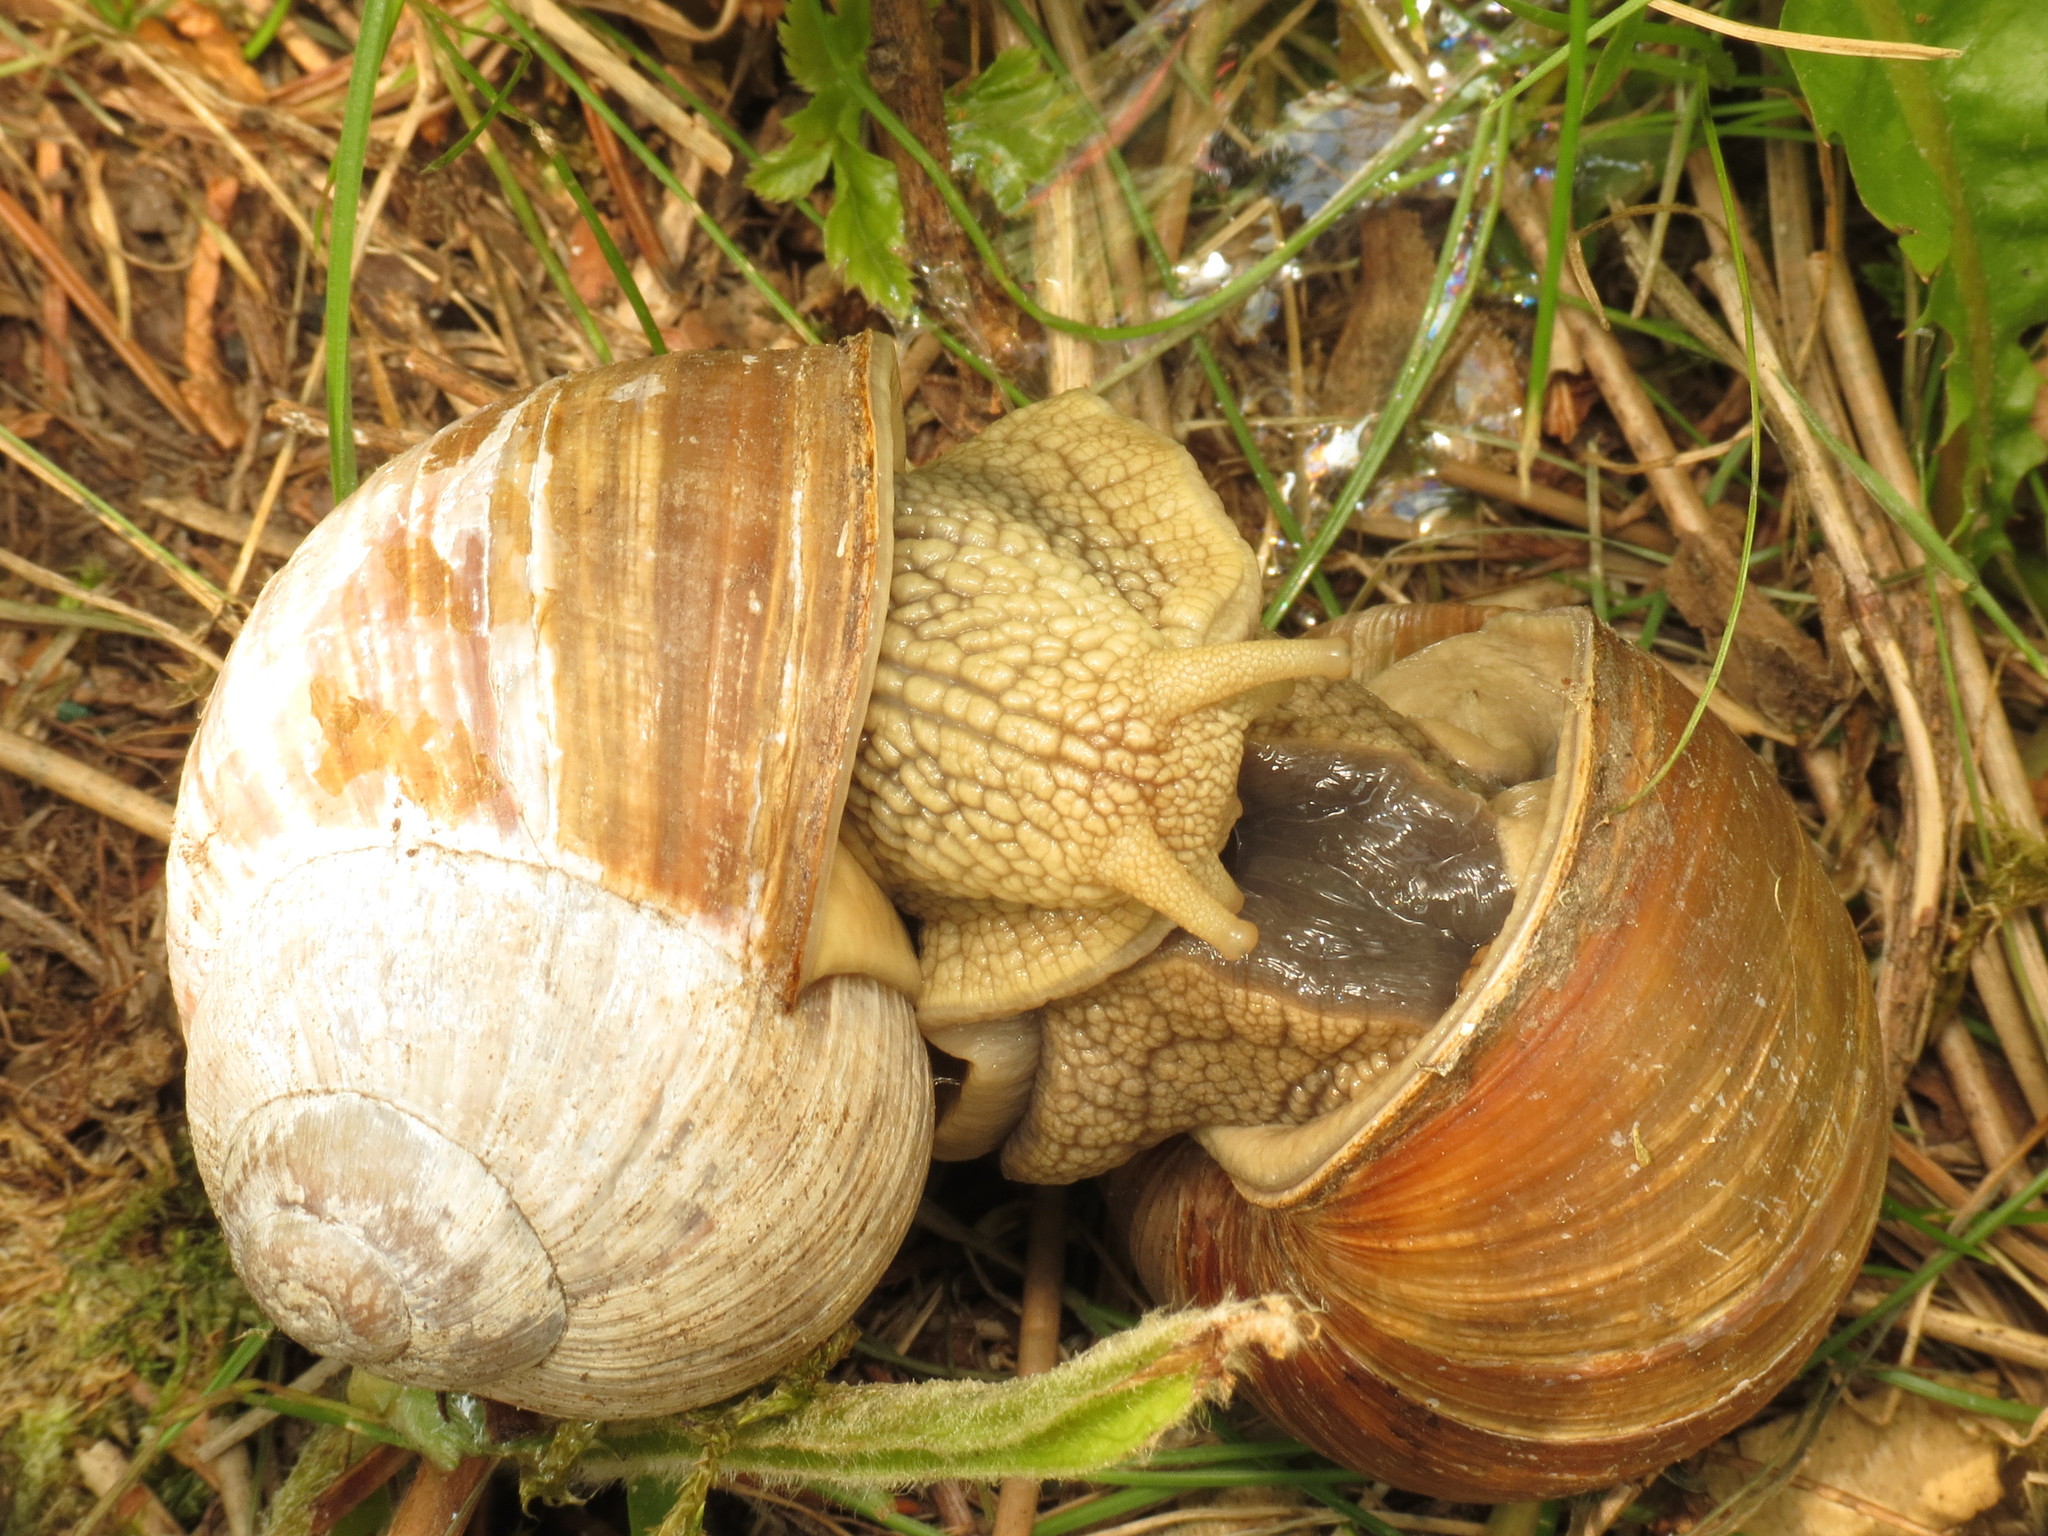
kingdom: Animalia
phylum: Mollusca
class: Gastropoda
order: Stylommatophora
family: Helicidae
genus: Helix
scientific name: Helix pomatia
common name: Roman snail
